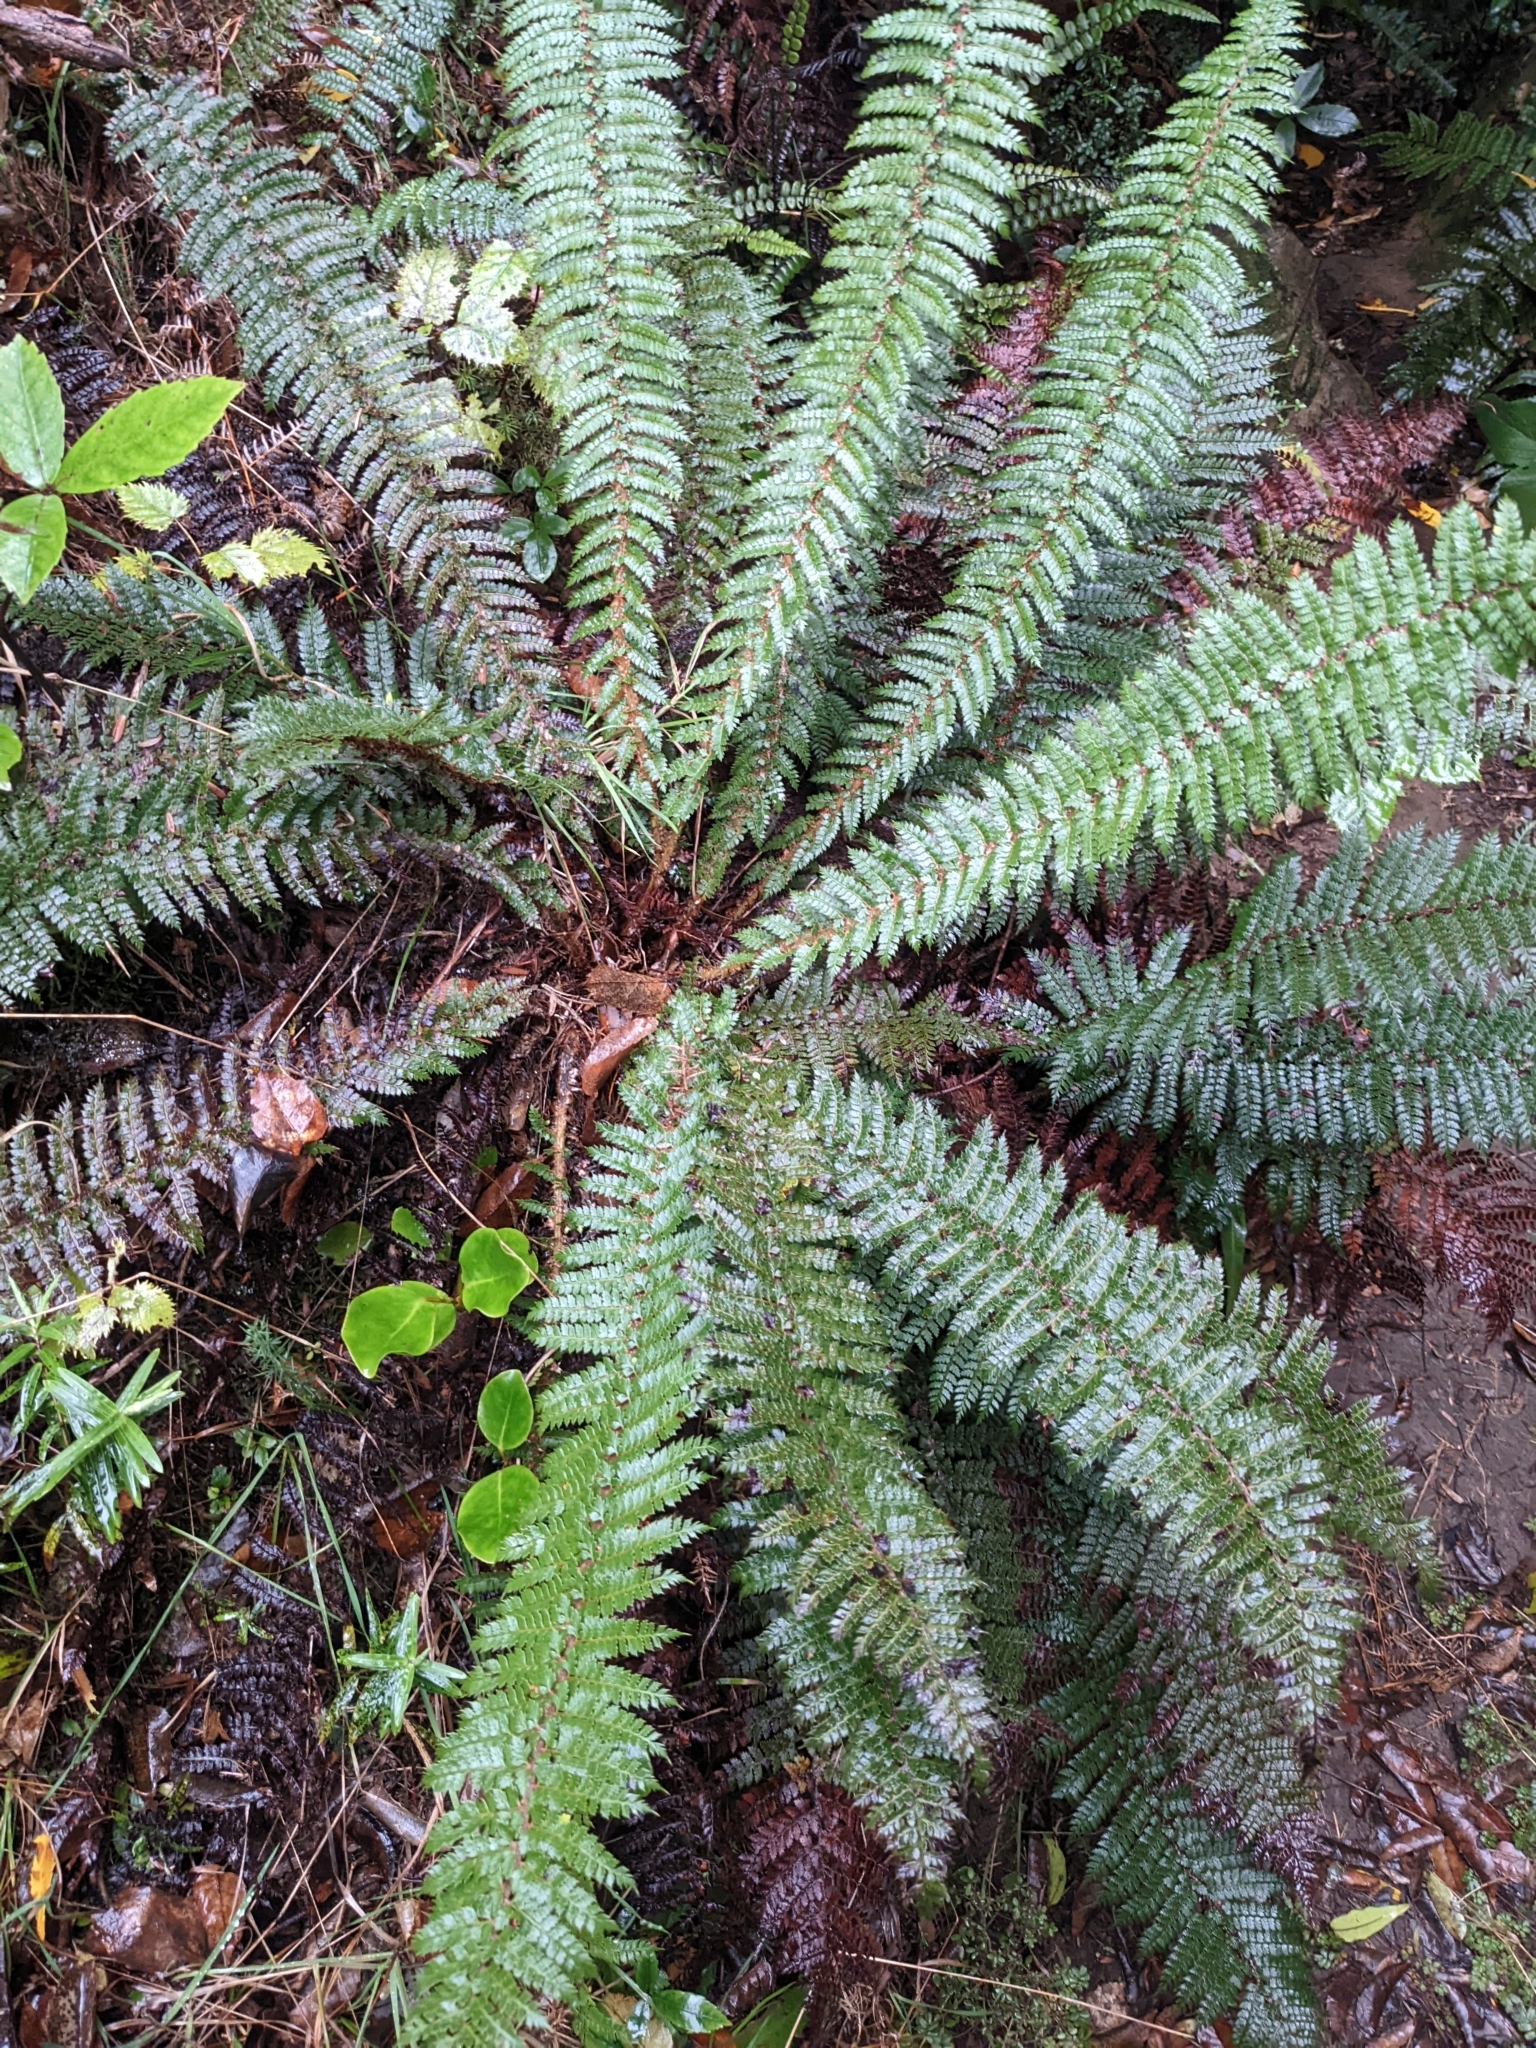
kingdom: Plantae
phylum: Tracheophyta
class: Polypodiopsida
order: Polypodiales
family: Dryopteridaceae
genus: Polystichum
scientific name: Polystichum vestitum
